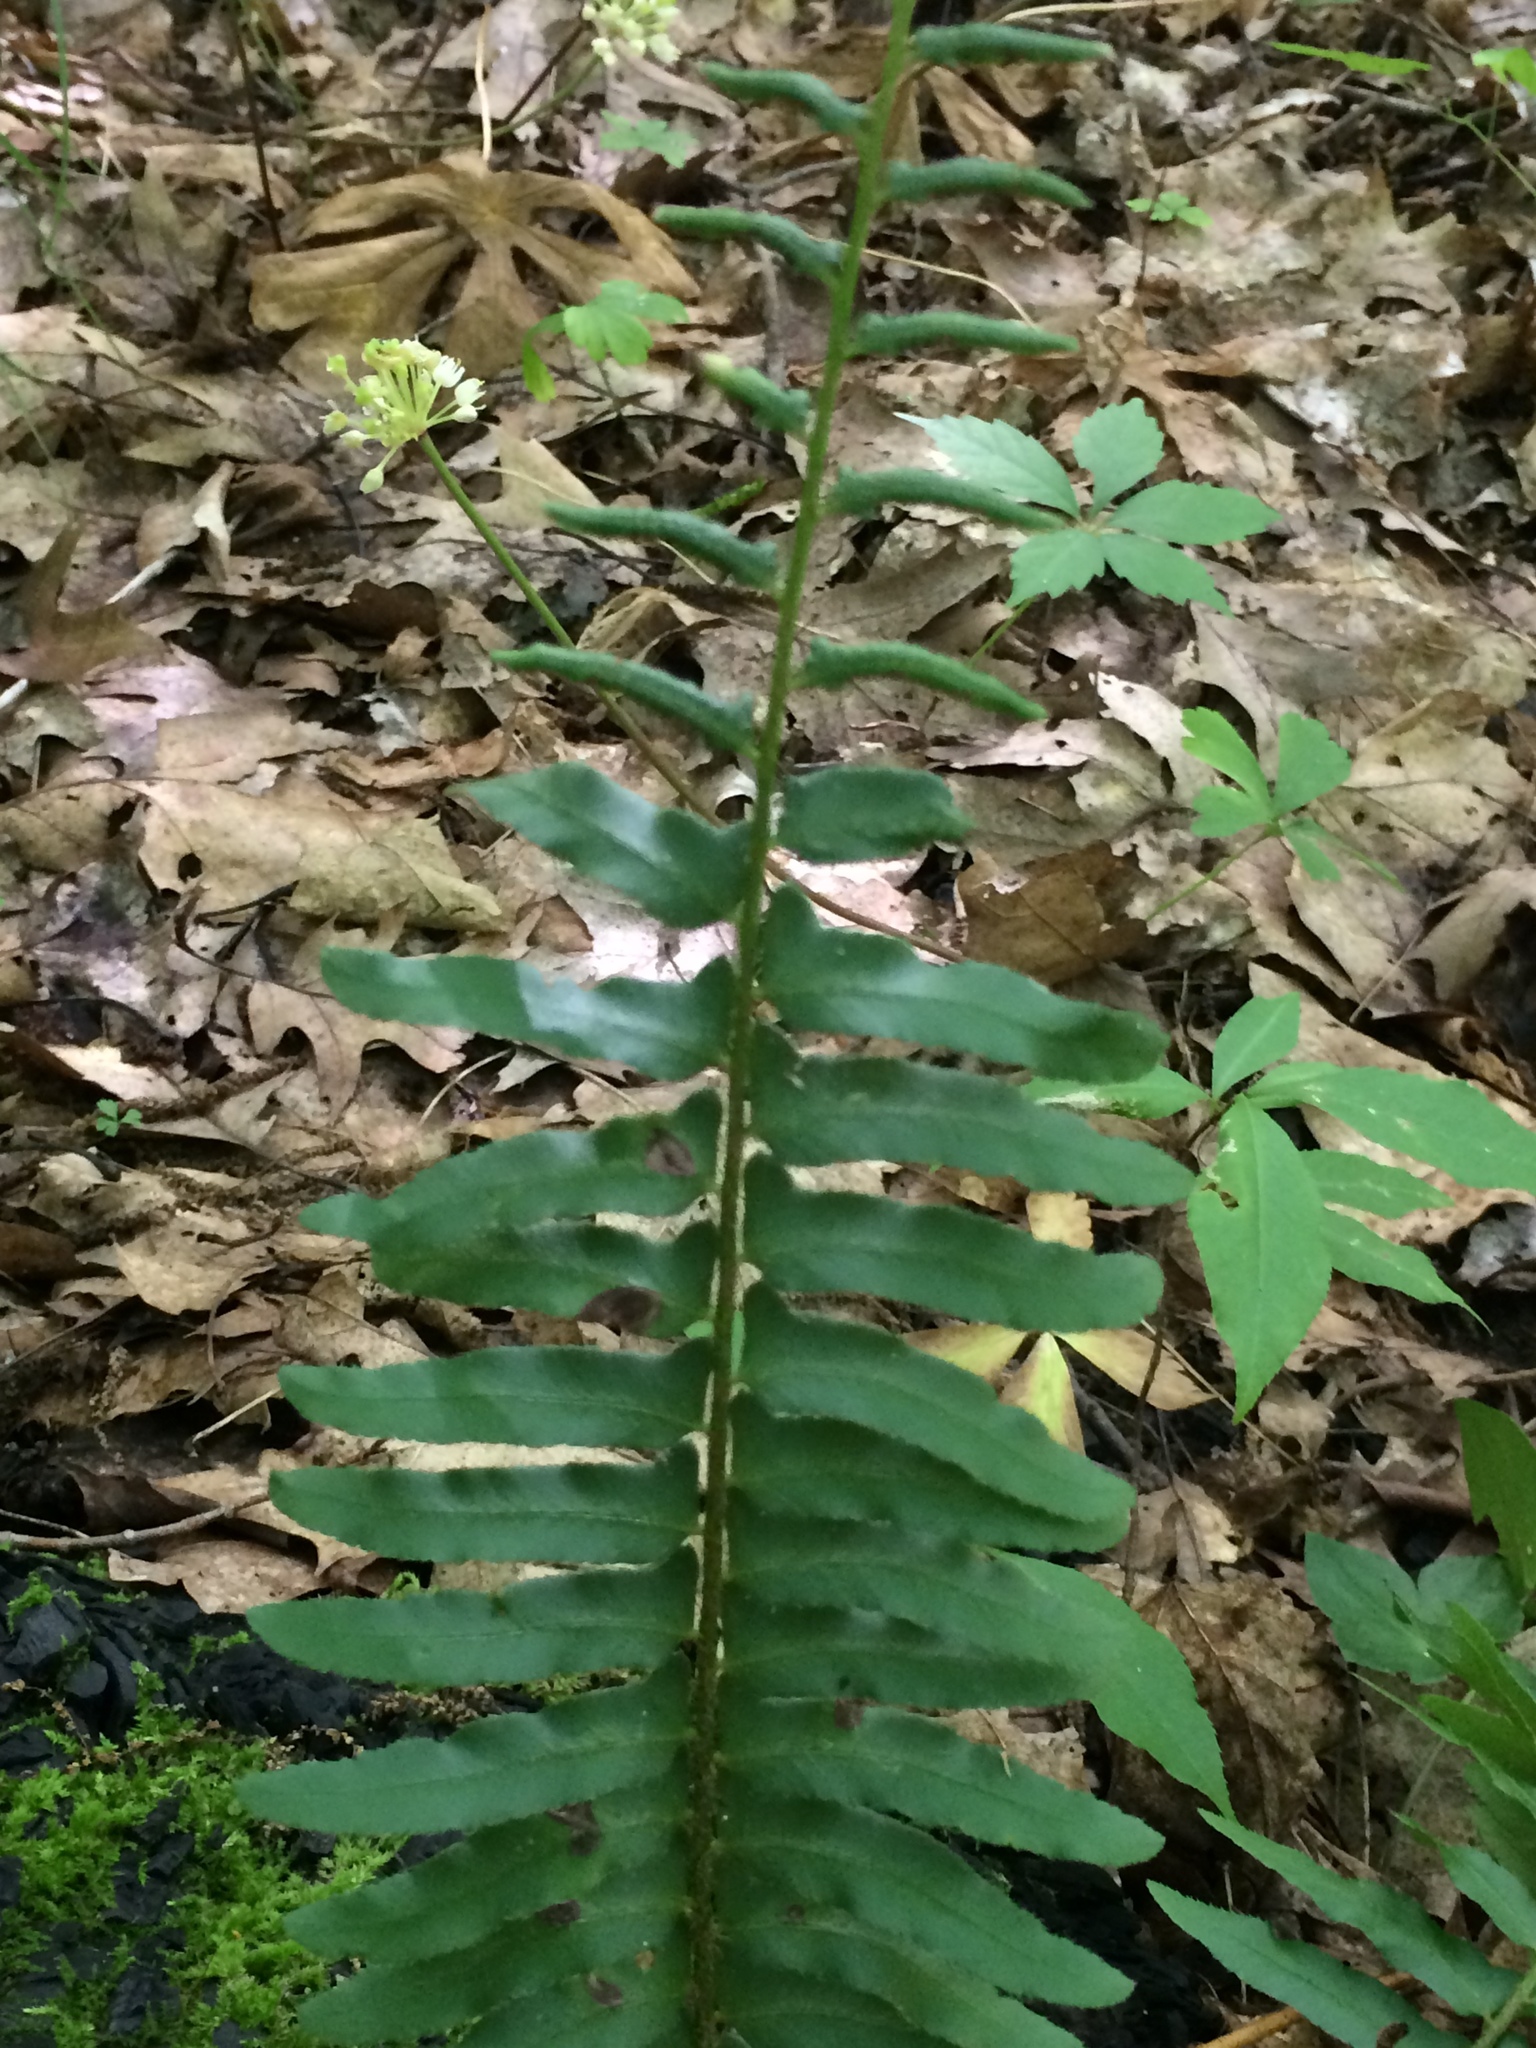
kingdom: Plantae
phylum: Tracheophyta
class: Polypodiopsida
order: Polypodiales
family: Dryopteridaceae
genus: Polystichum
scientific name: Polystichum acrostichoides
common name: Christmas fern
